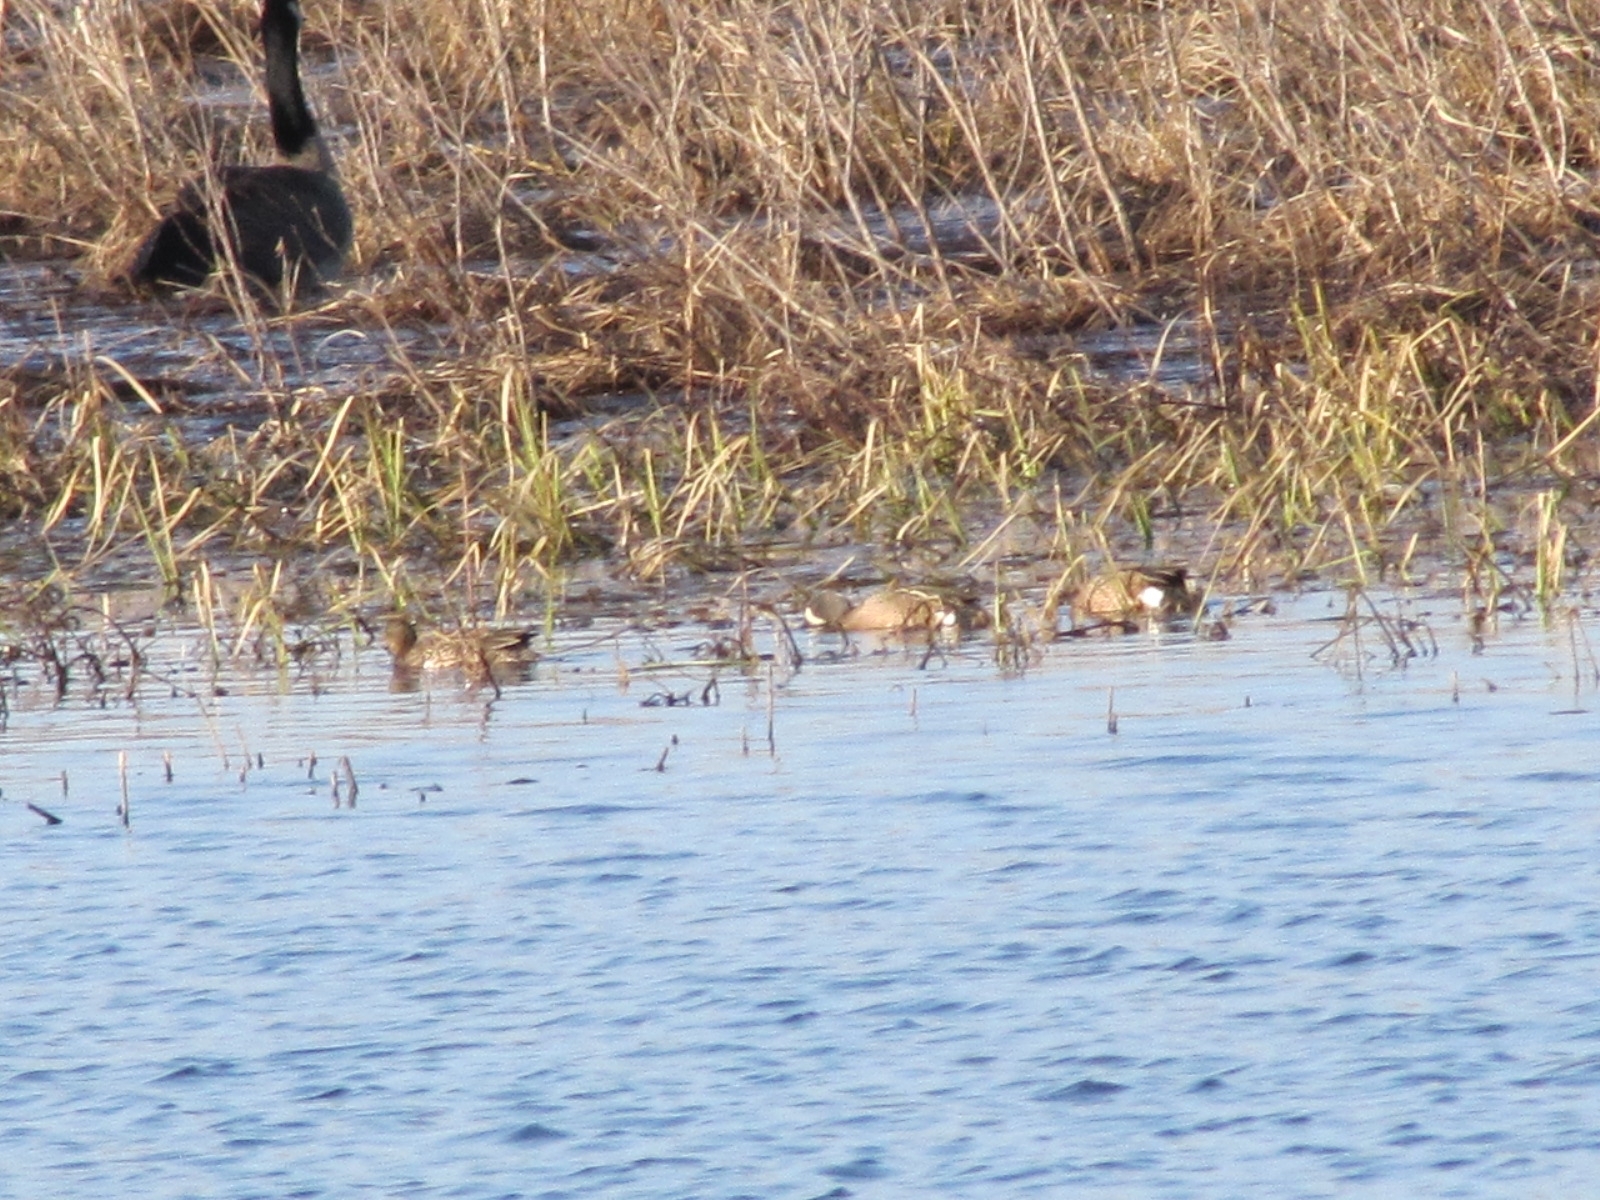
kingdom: Animalia
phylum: Chordata
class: Aves
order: Anseriformes
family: Anatidae
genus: Spatula
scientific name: Spatula discors
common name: Blue-winged teal
